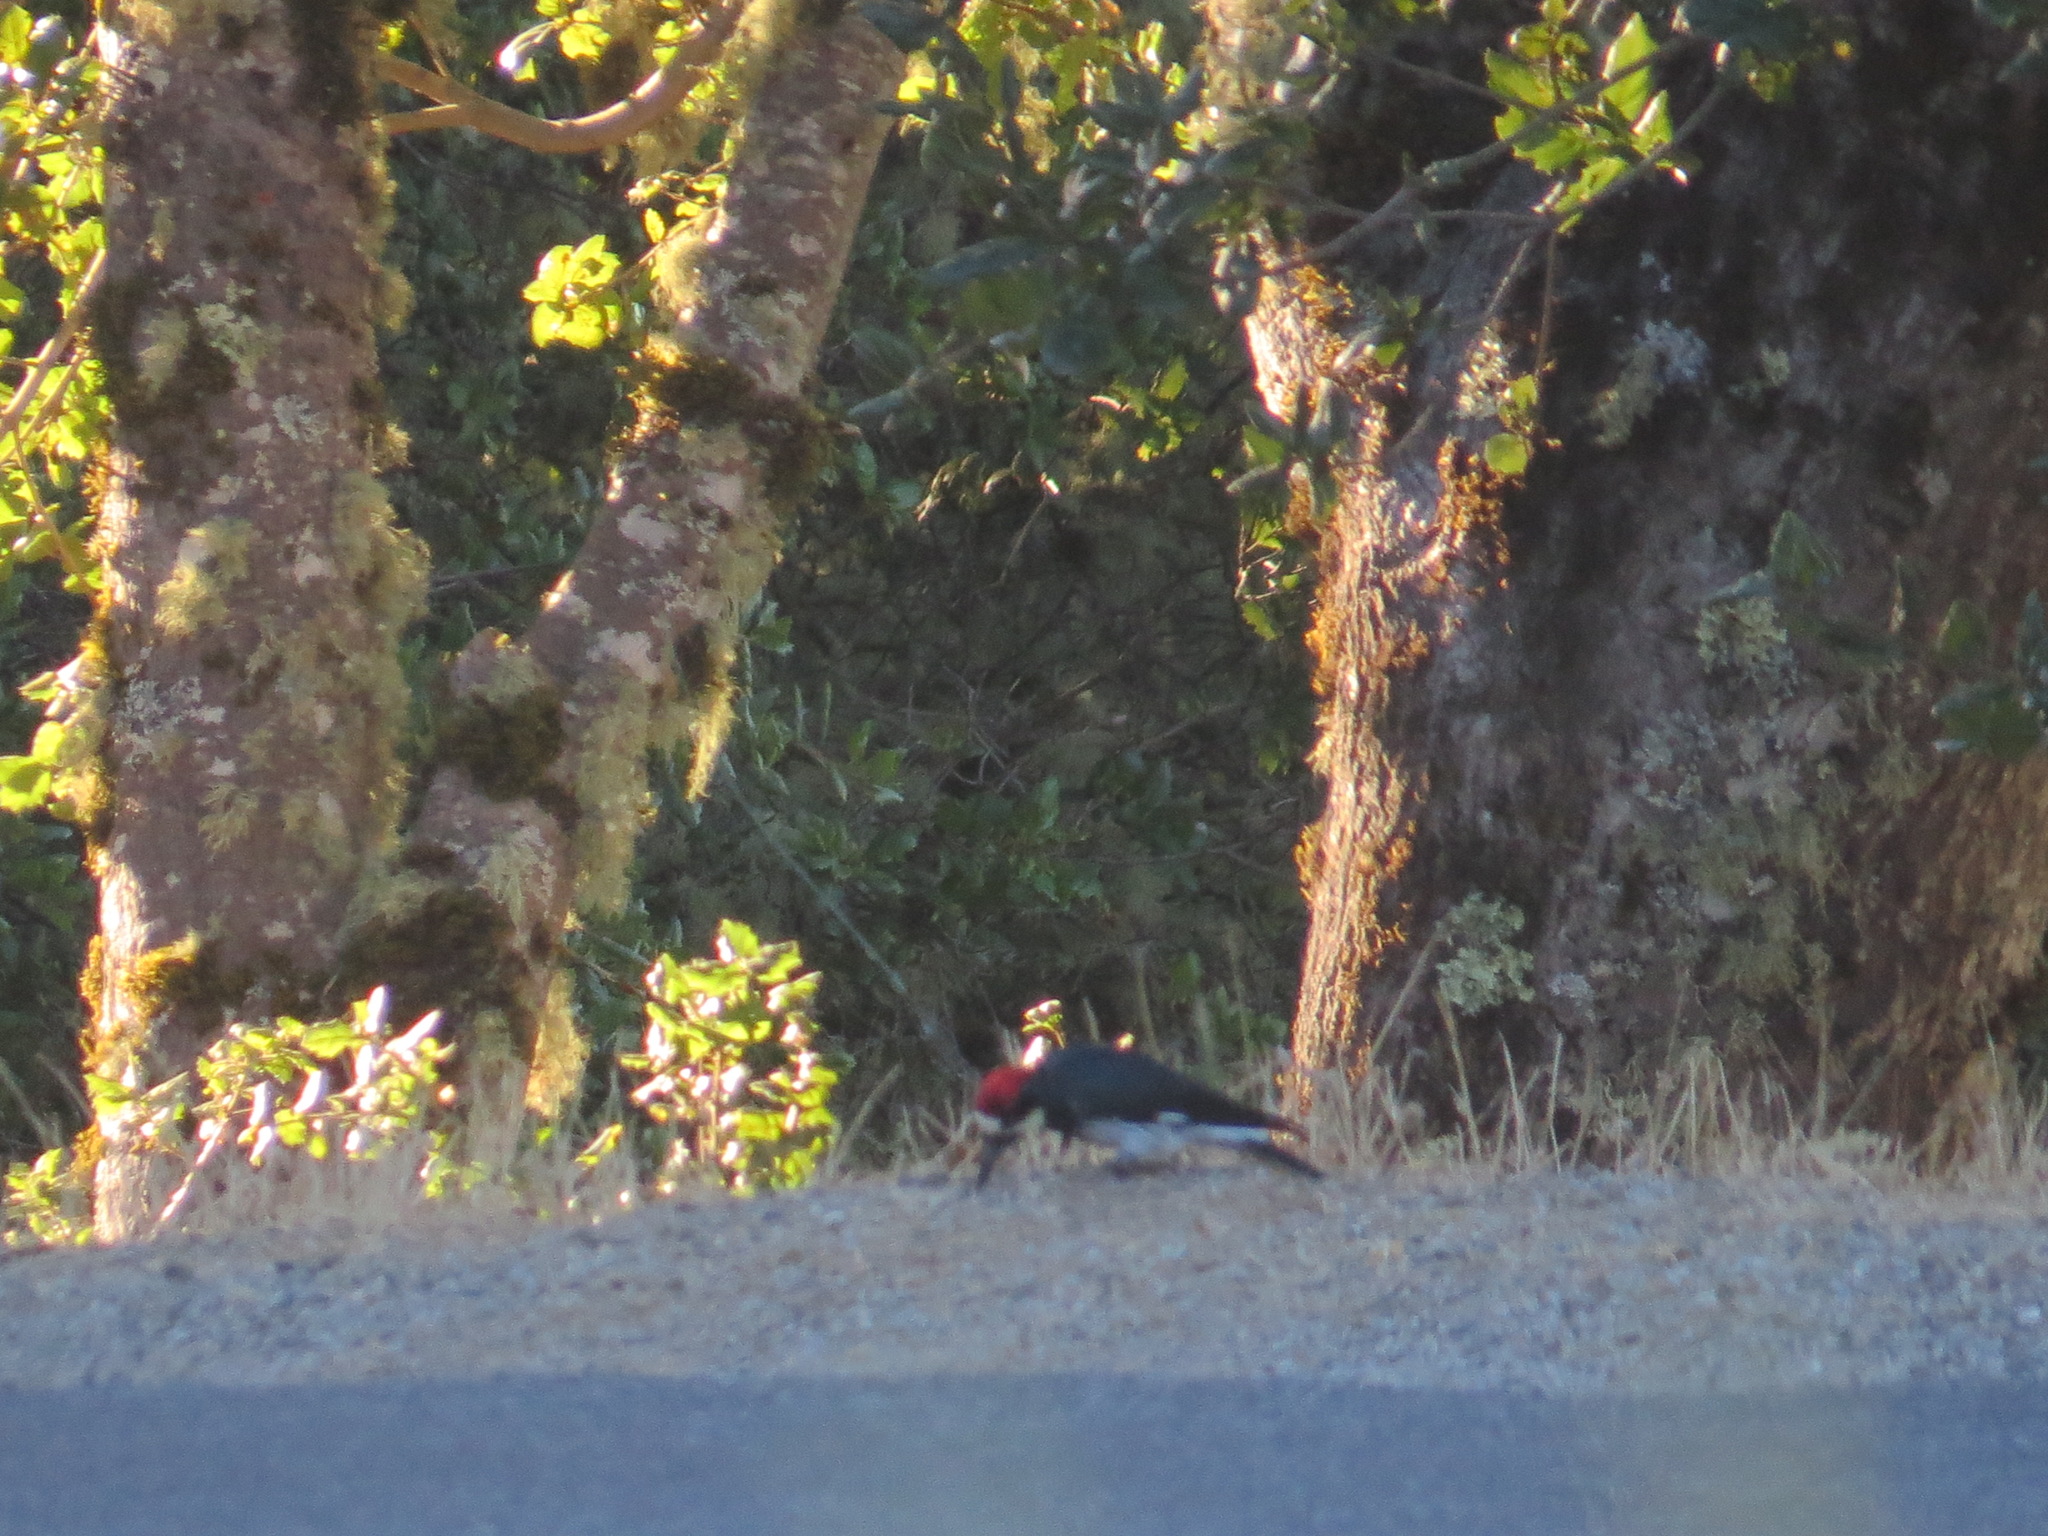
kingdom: Animalia
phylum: Chordata
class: Aves
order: Piciformes
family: Picidae
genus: Melanerpes
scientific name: Melanerpes formicivorus
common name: Acorn woodpecker
